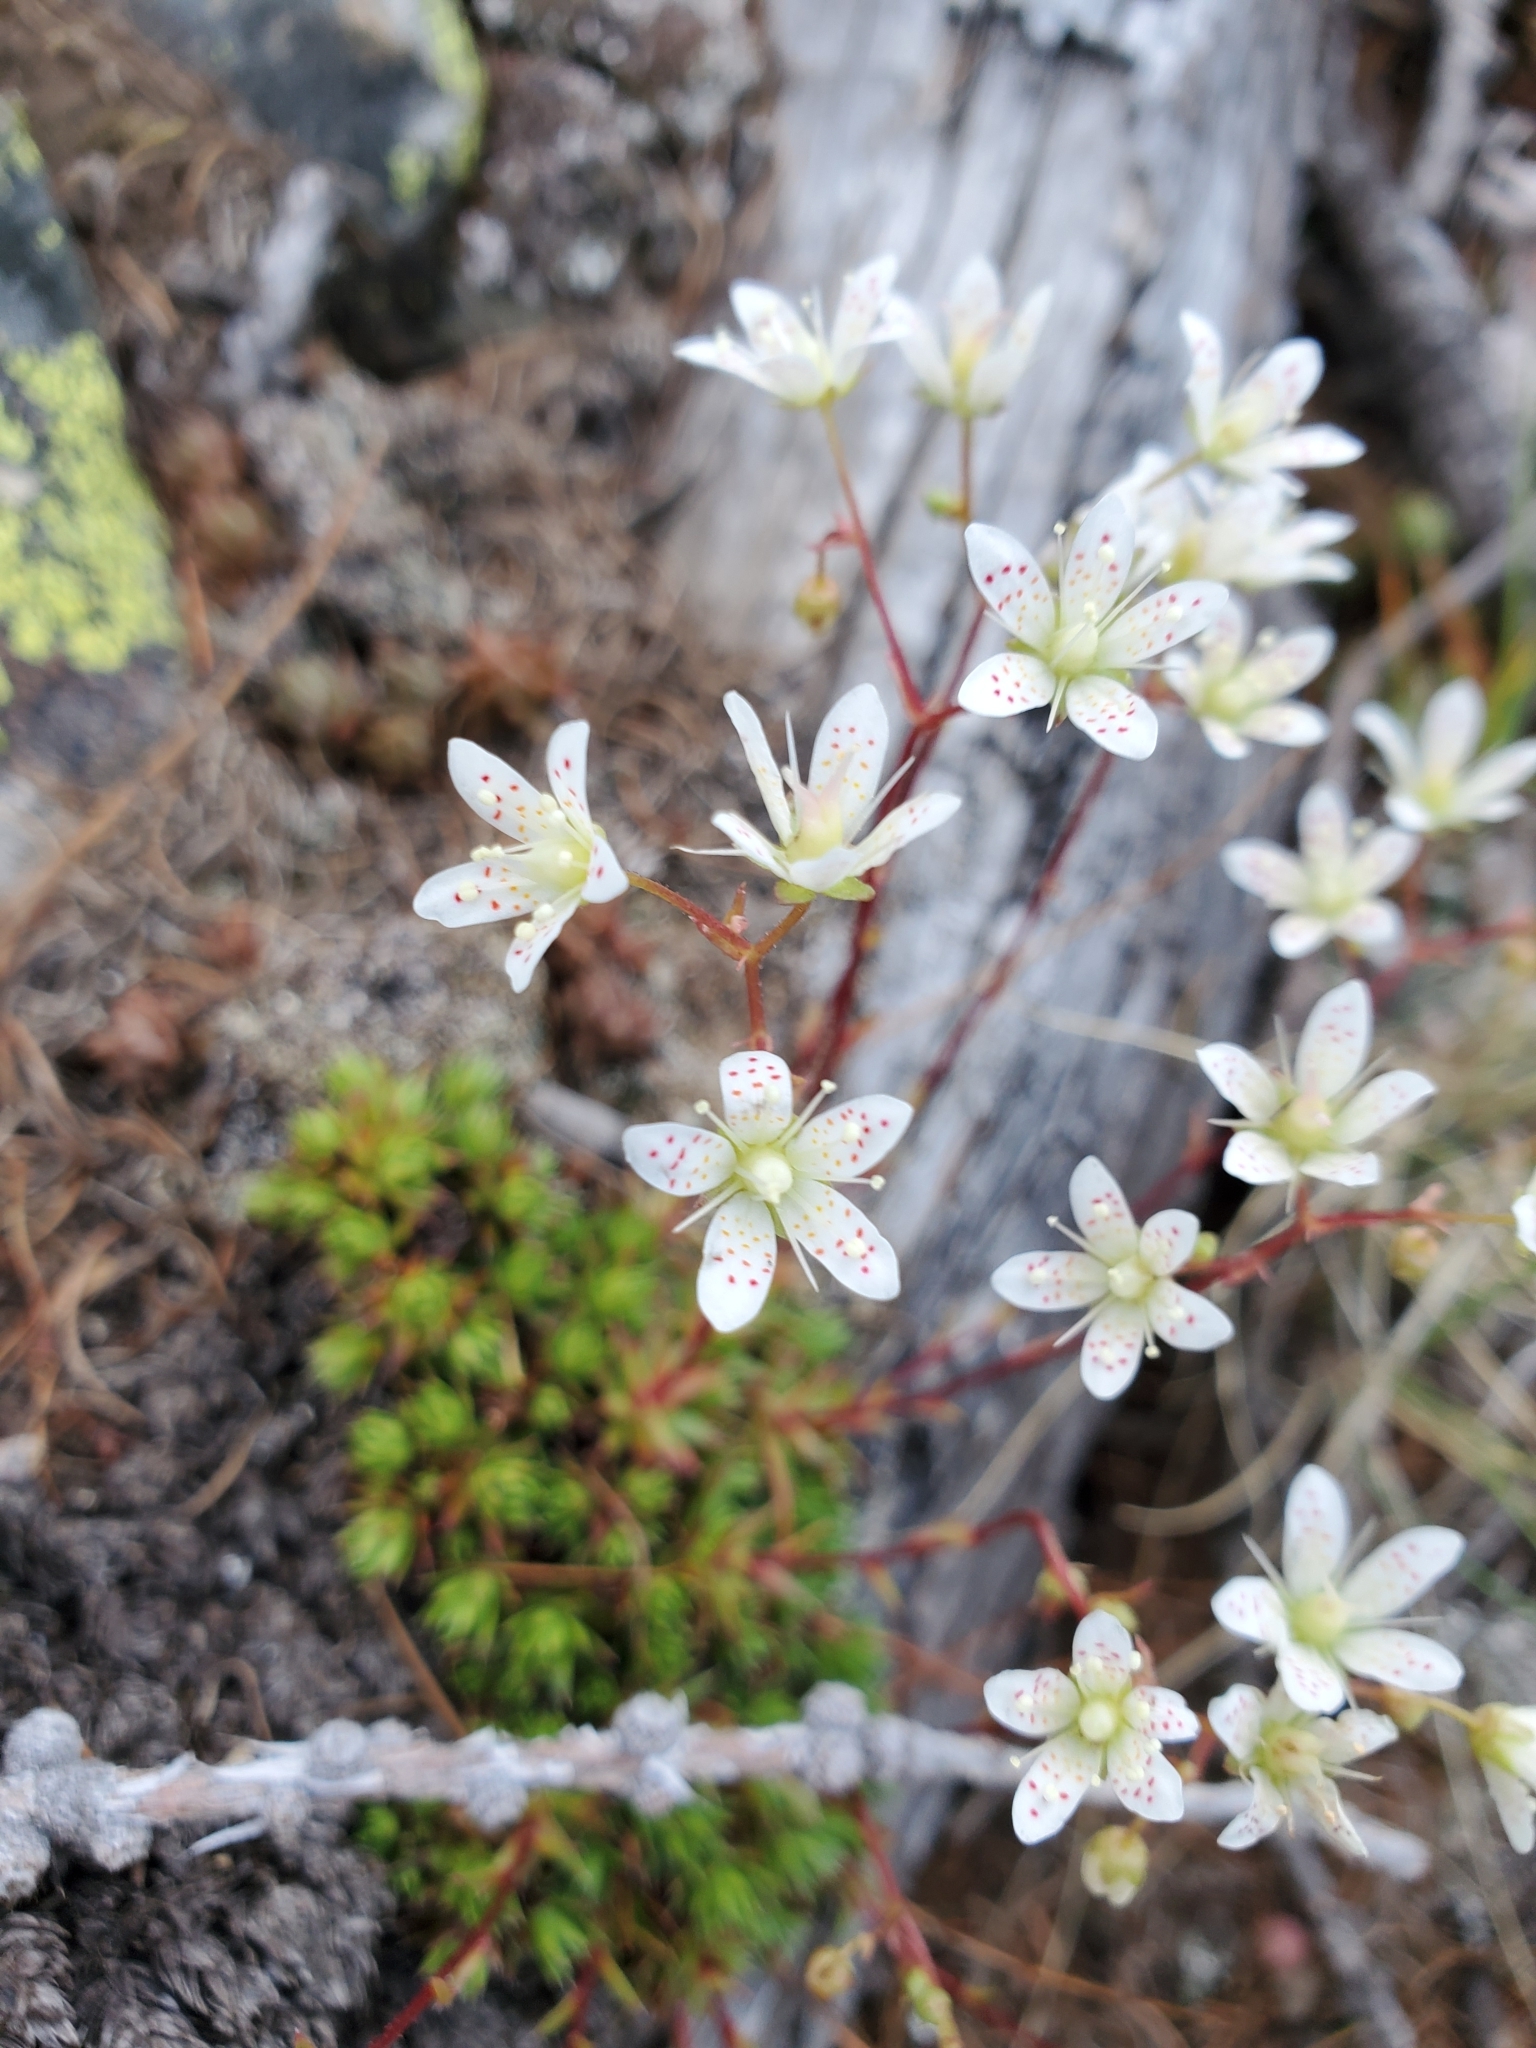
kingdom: Plantae
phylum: Tracheophyta
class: Magnoliopsida
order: Saxifragales
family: Saxifragaceae
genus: Saxifraga
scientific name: Saxifraga bronchialis
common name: Matted saxifrage
